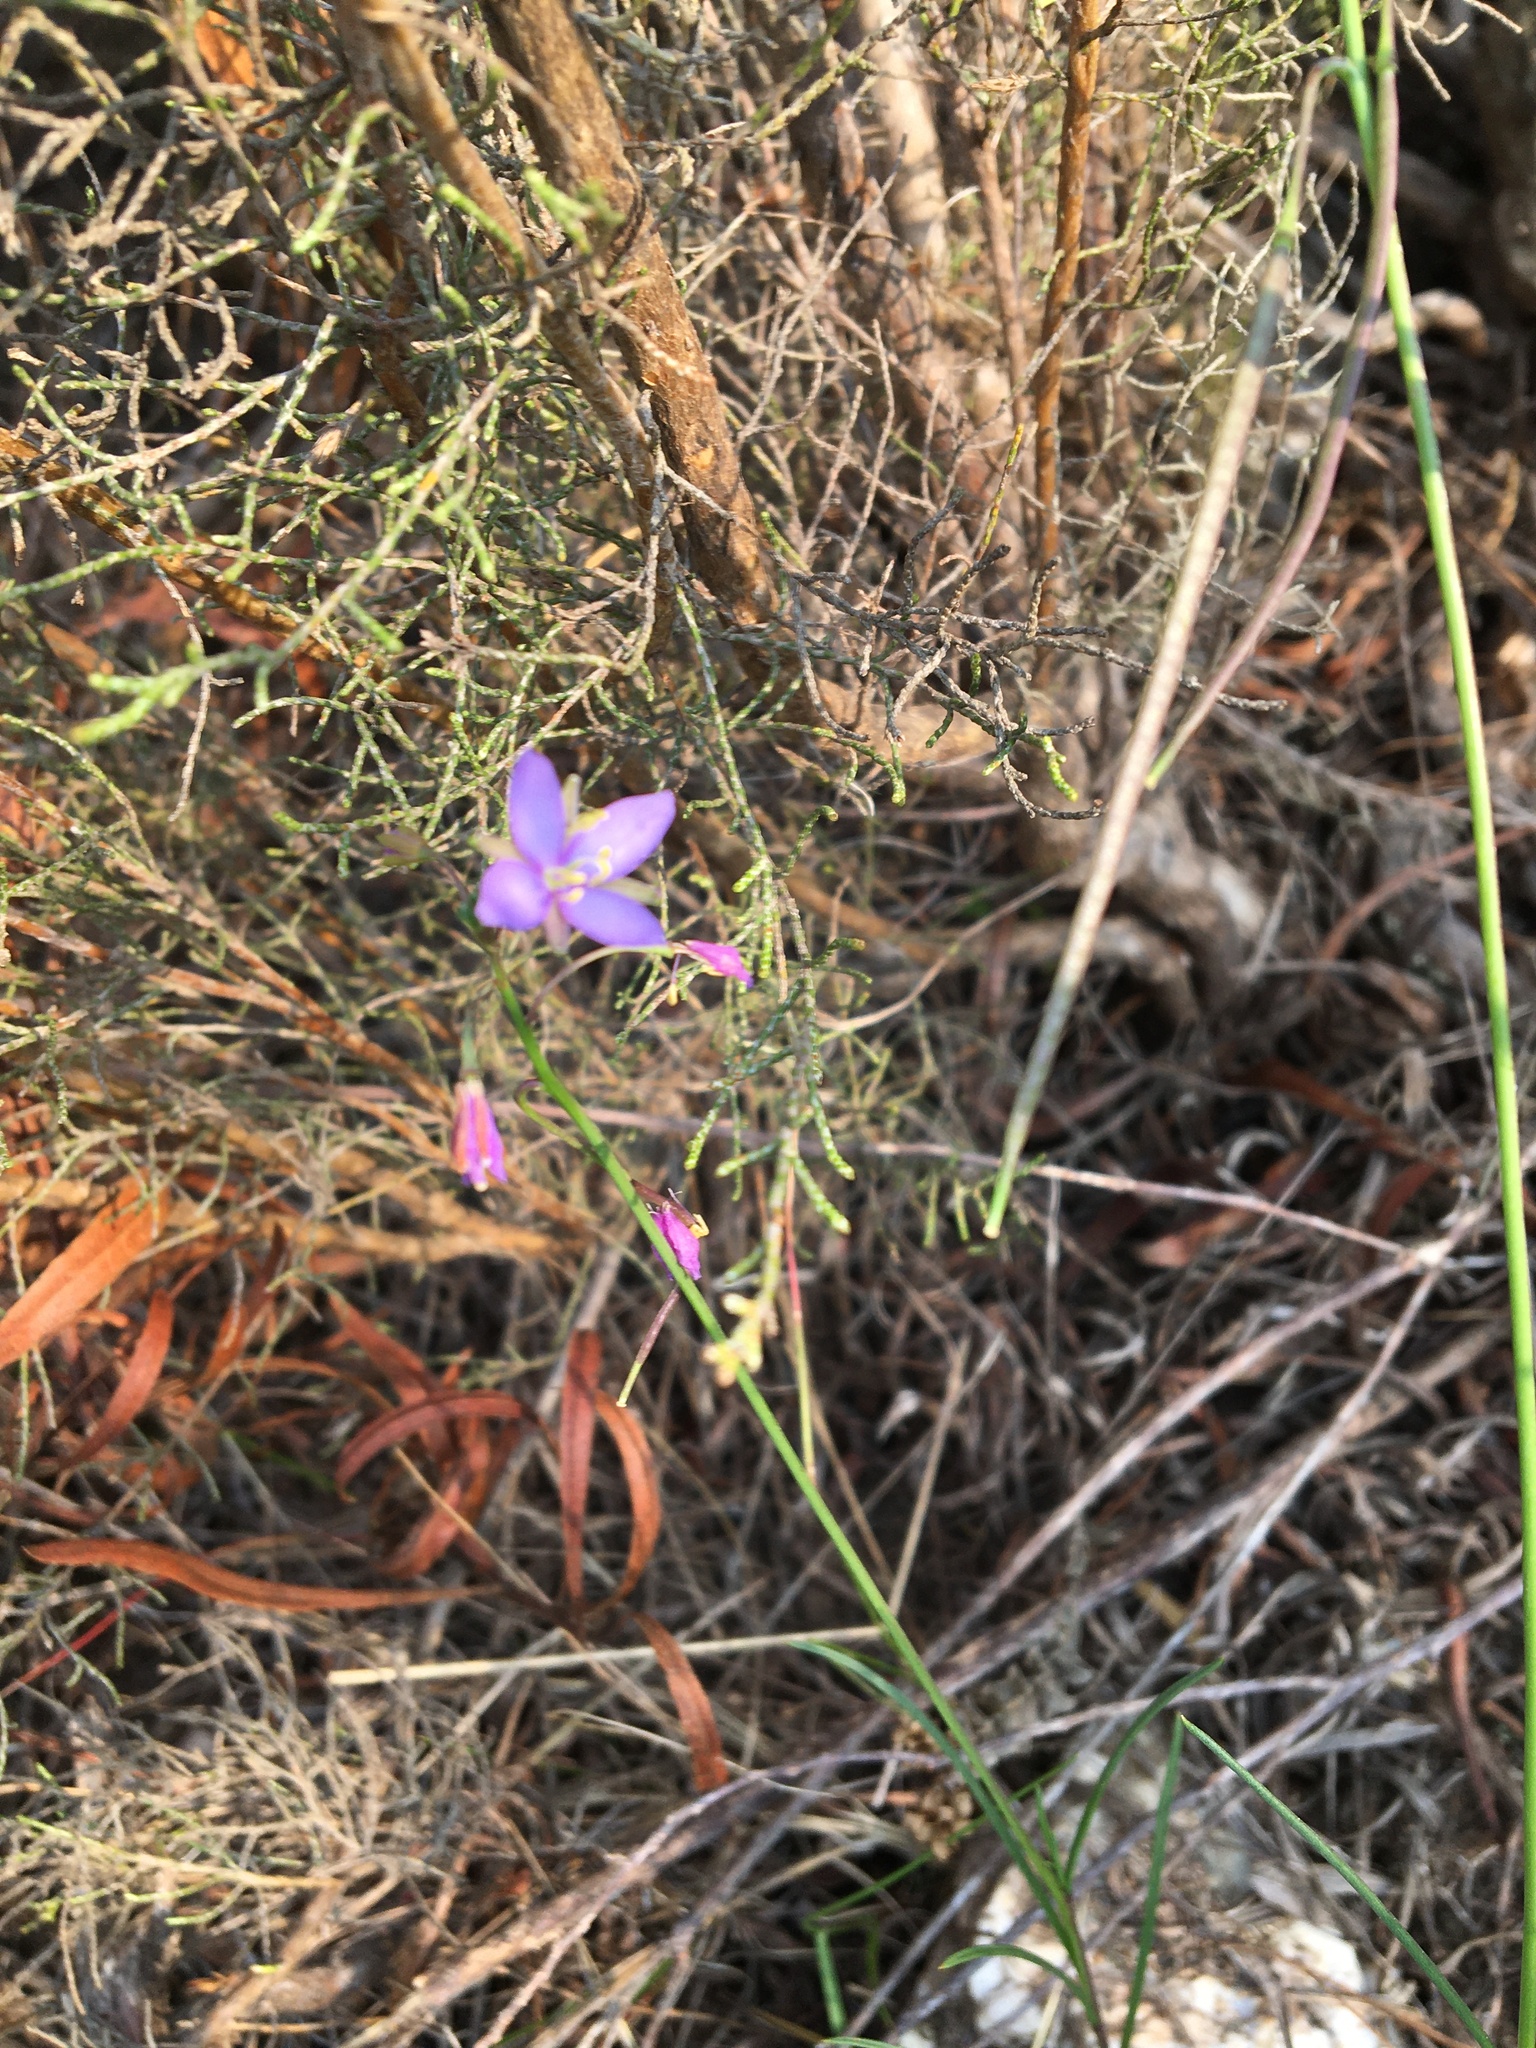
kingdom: Plantae
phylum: Tracheophyta
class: Magnoliopsida
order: Brassicales
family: Brassicaceae
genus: Heliophila
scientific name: Heliophila subulata
